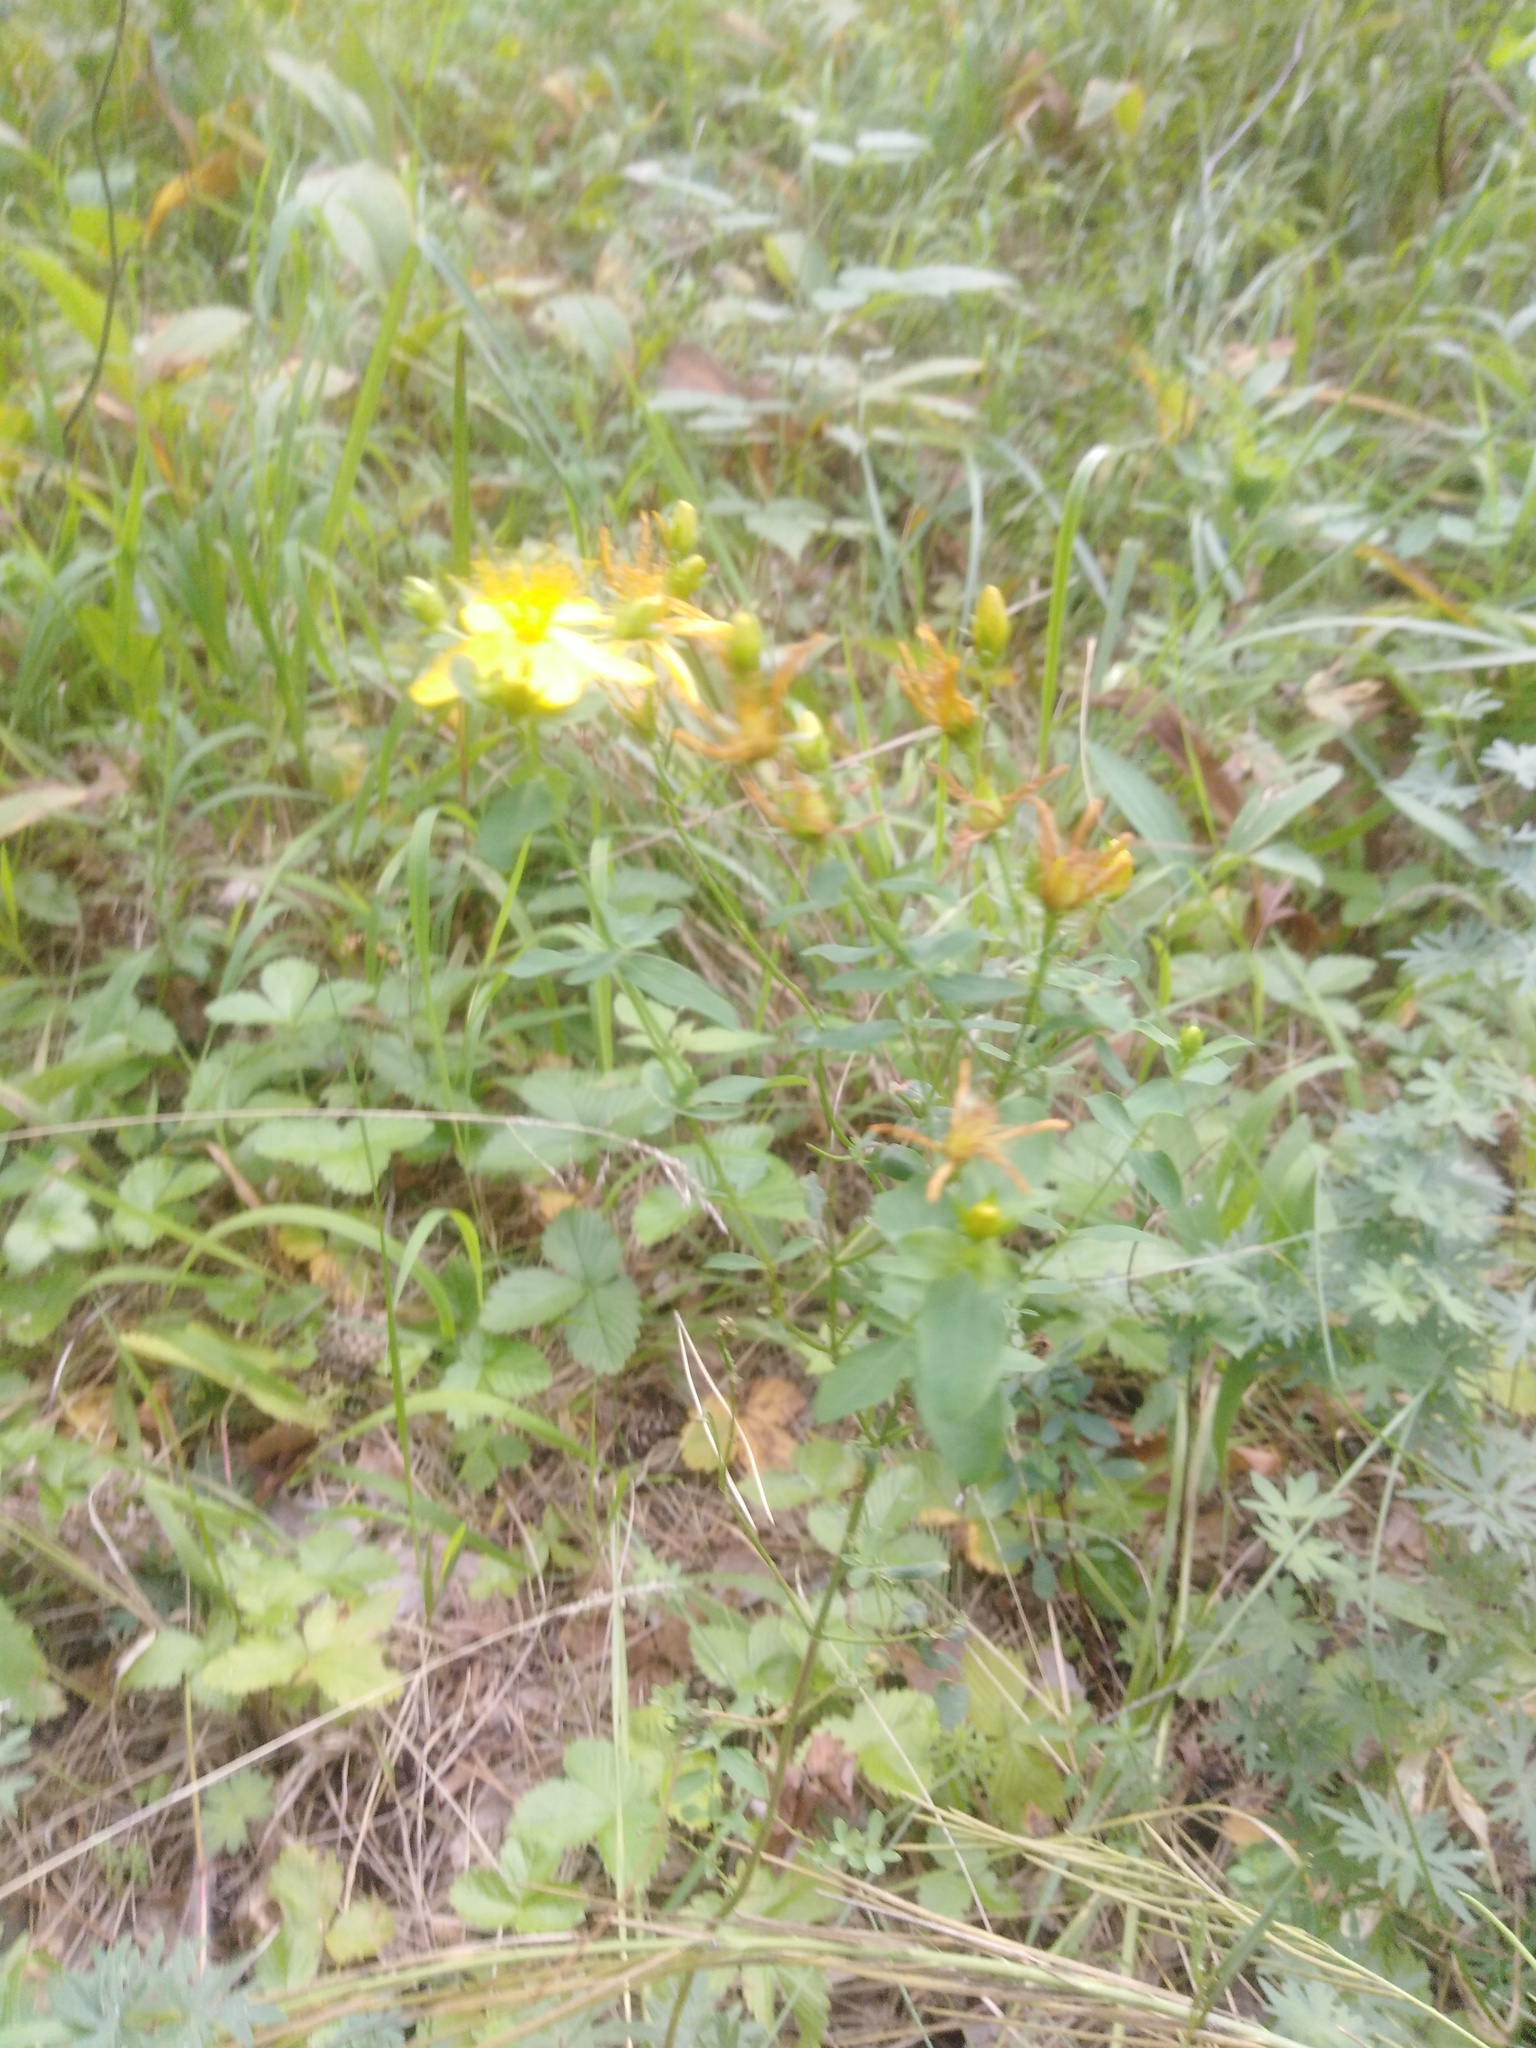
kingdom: Plantae
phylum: Tracheophyta
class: Magnoliopsida
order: Malpighiales
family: Hypericaceae
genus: Hypericum
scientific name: Hypericum perforatum
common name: Common st. johnswort
